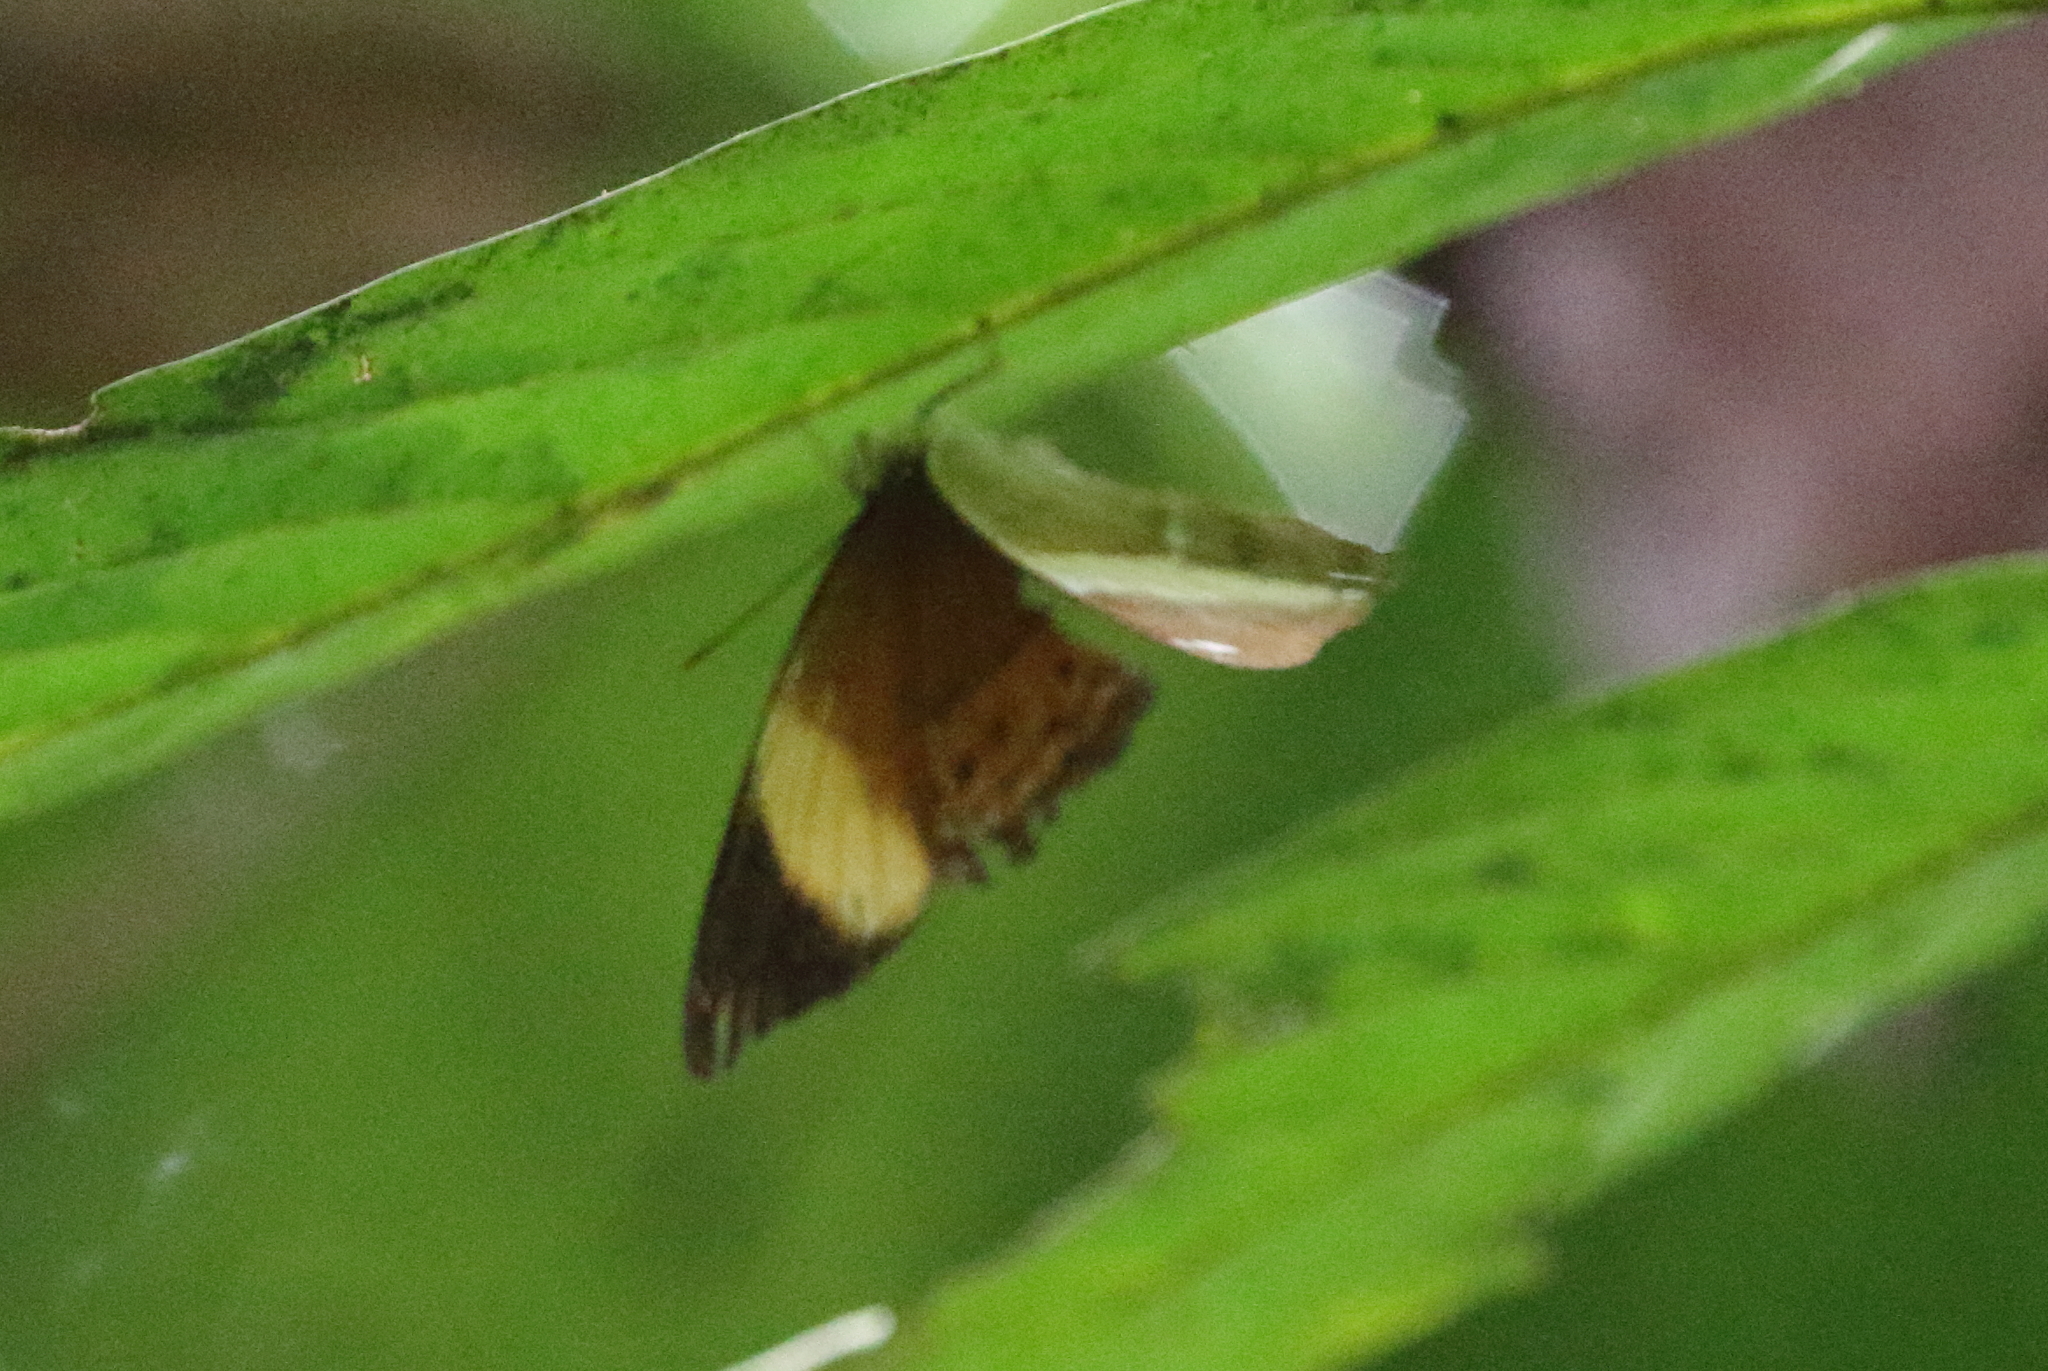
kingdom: Animalia
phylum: Arthropoda
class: Insecta
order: Lepidoptera
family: Nymphalidae
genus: Cirrochroa
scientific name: Cirrochroa orissa
